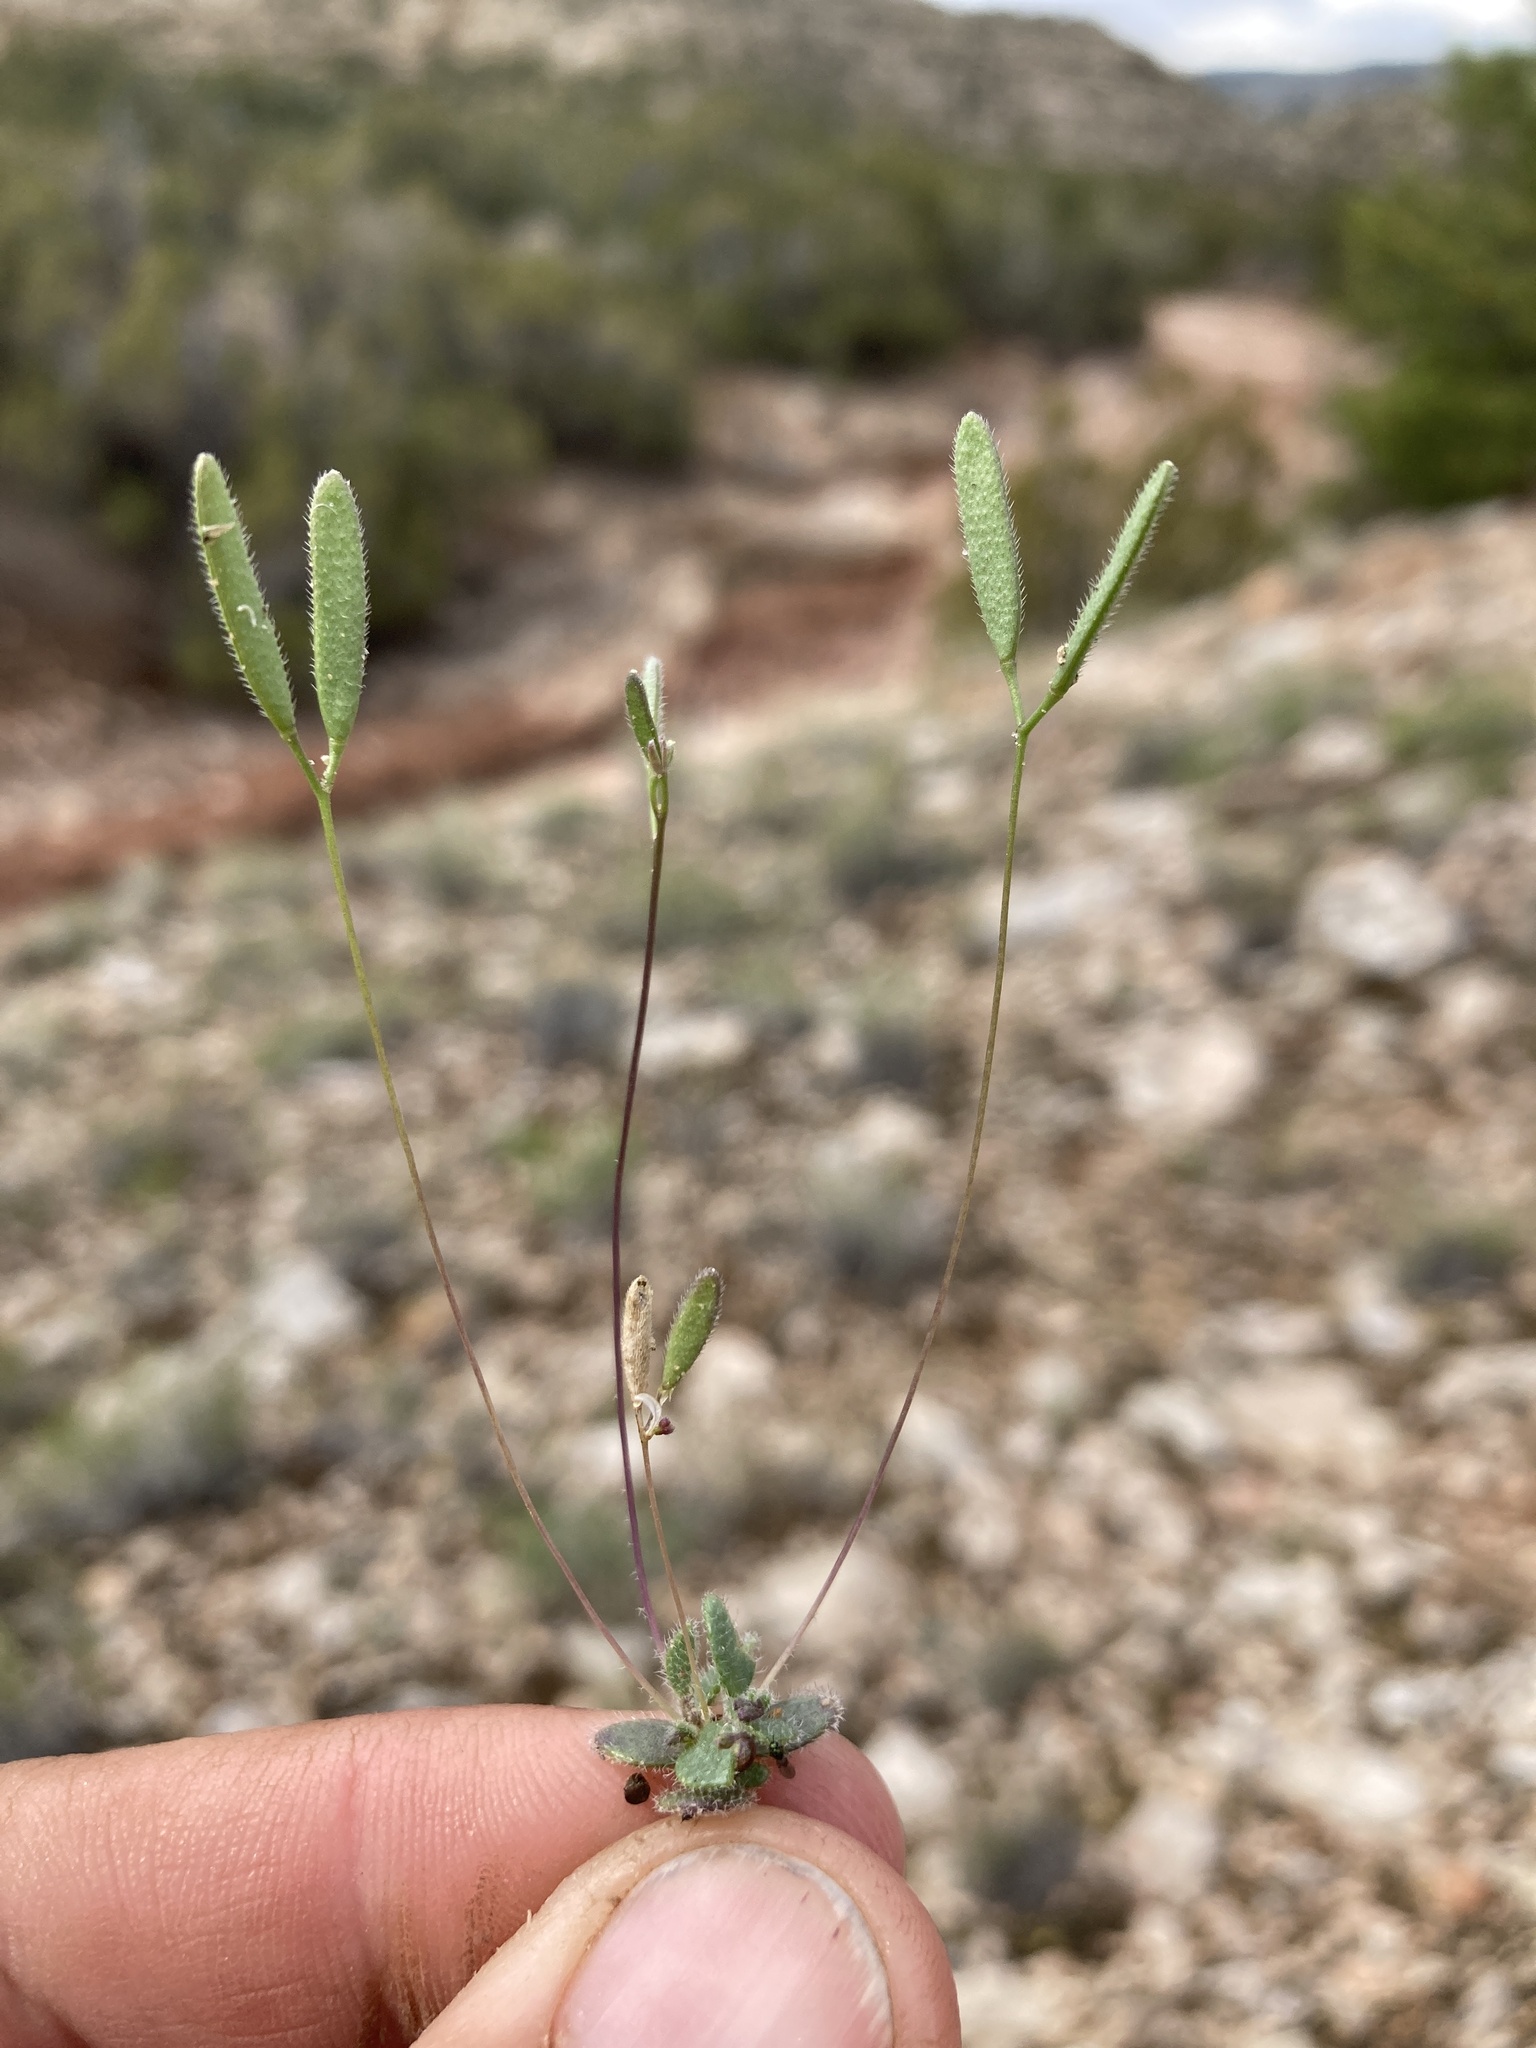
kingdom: Plantae
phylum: Tracheophyta
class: Magnoliopsida
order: Brassicales
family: Brassicaceae
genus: Tomostima
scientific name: Tomostima reptans
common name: Carolina draba
